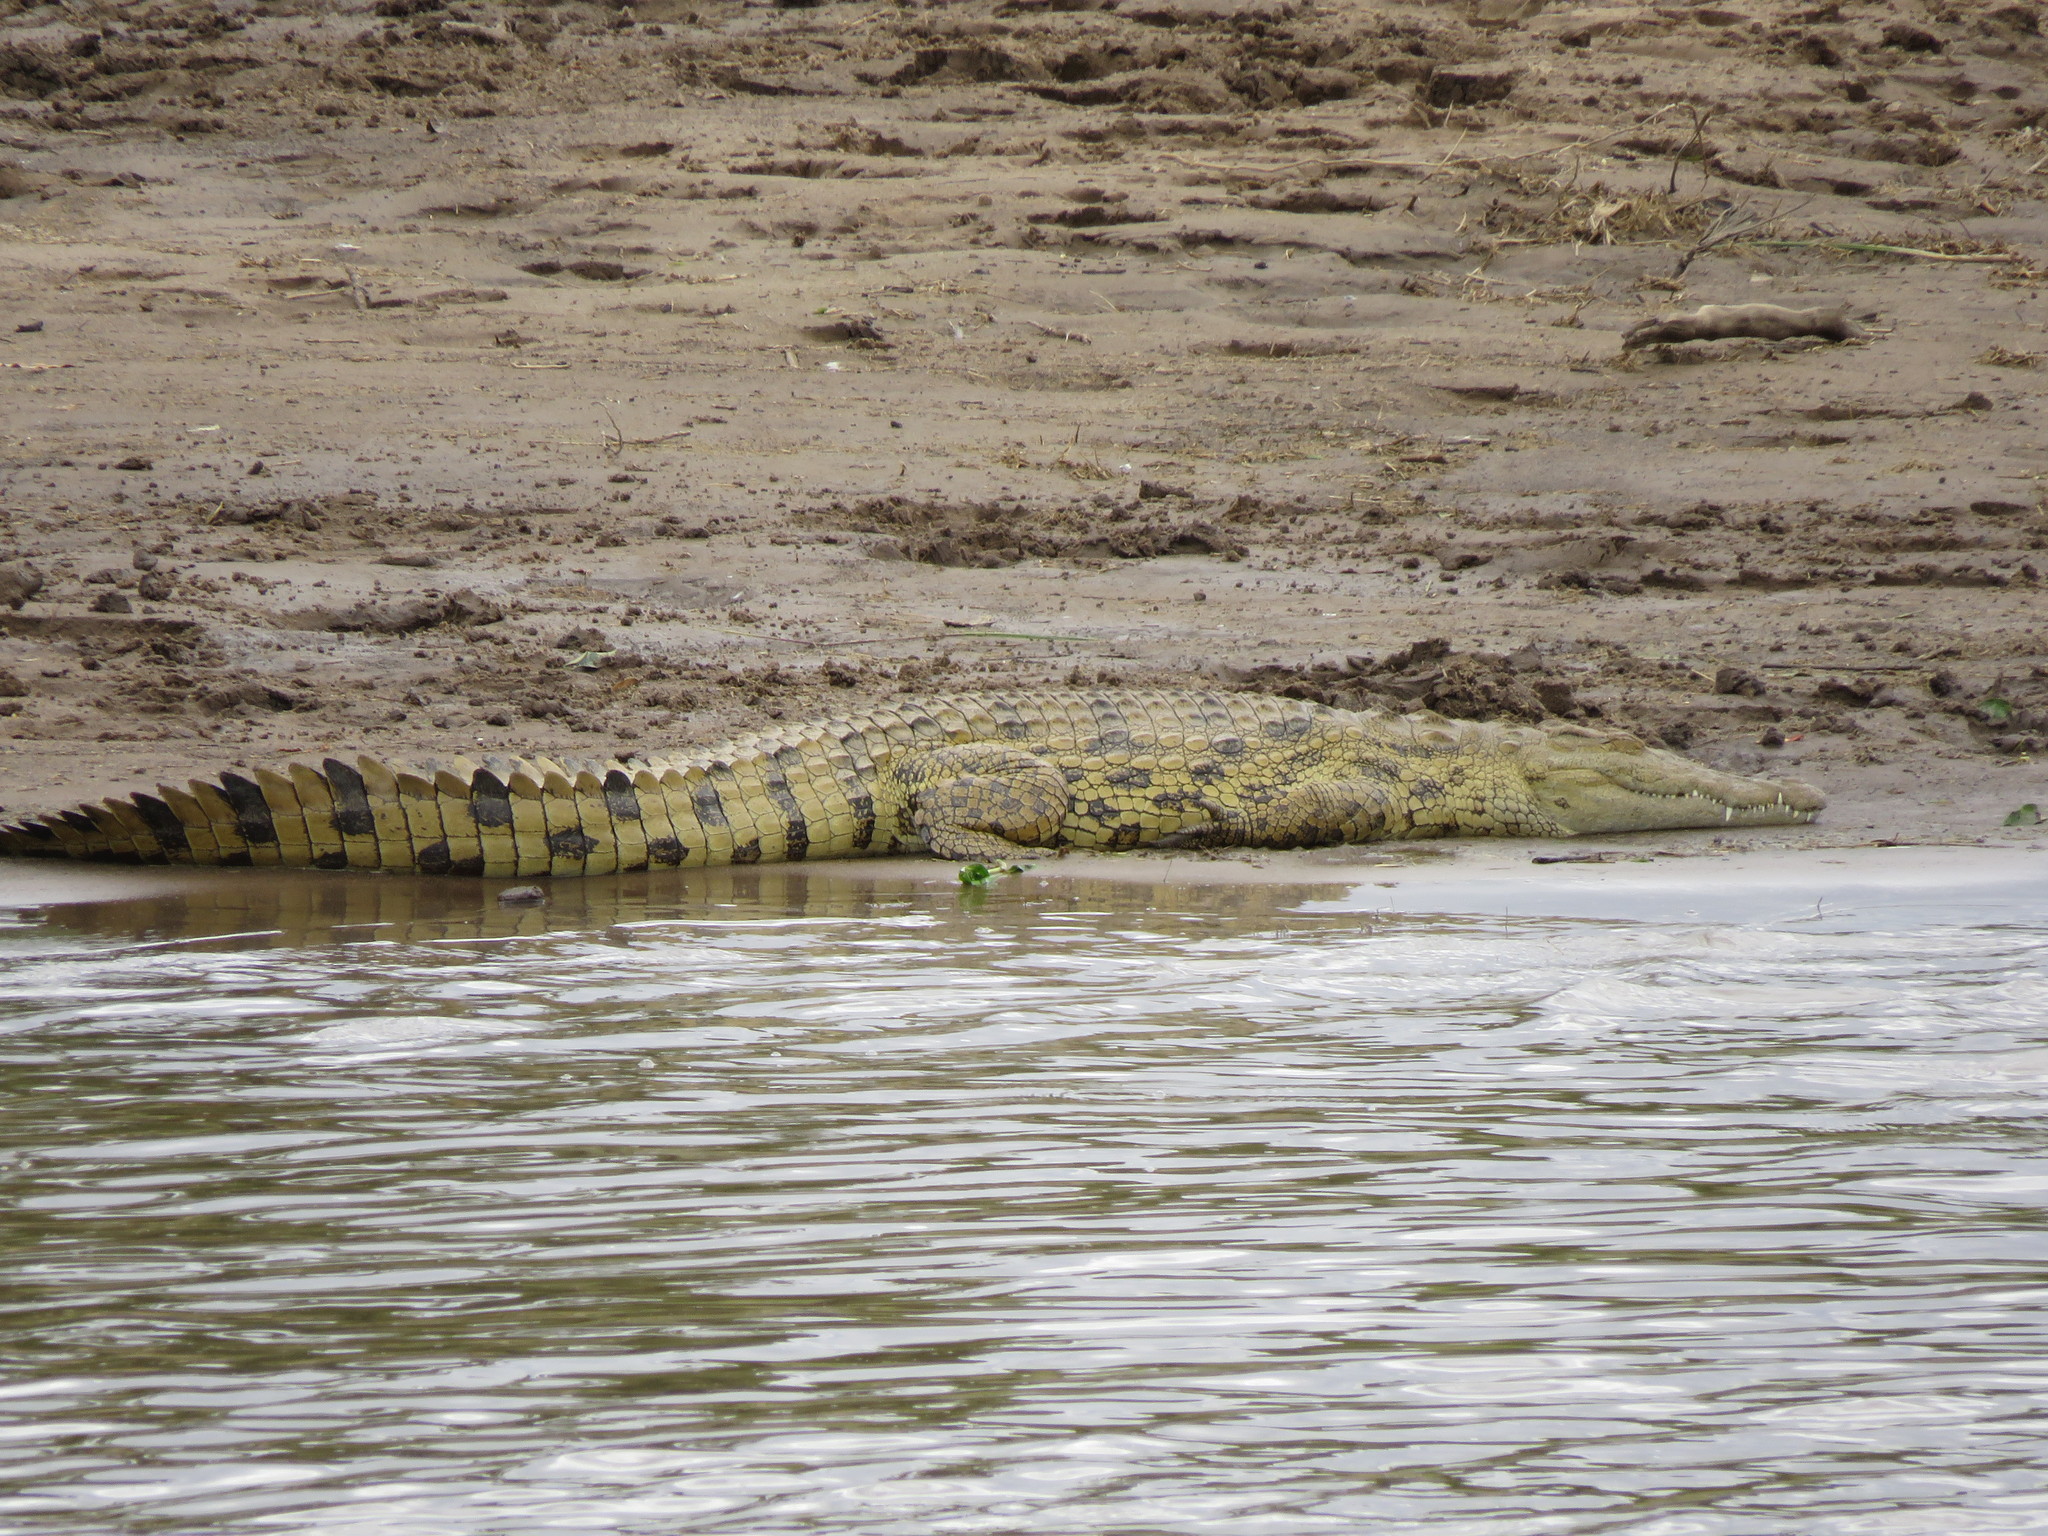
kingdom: Animalia
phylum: Chordata
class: Crocodylia
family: Crocodylidae
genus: Crocodylus
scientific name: Crocodylus niloticus
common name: Nile crocodile
